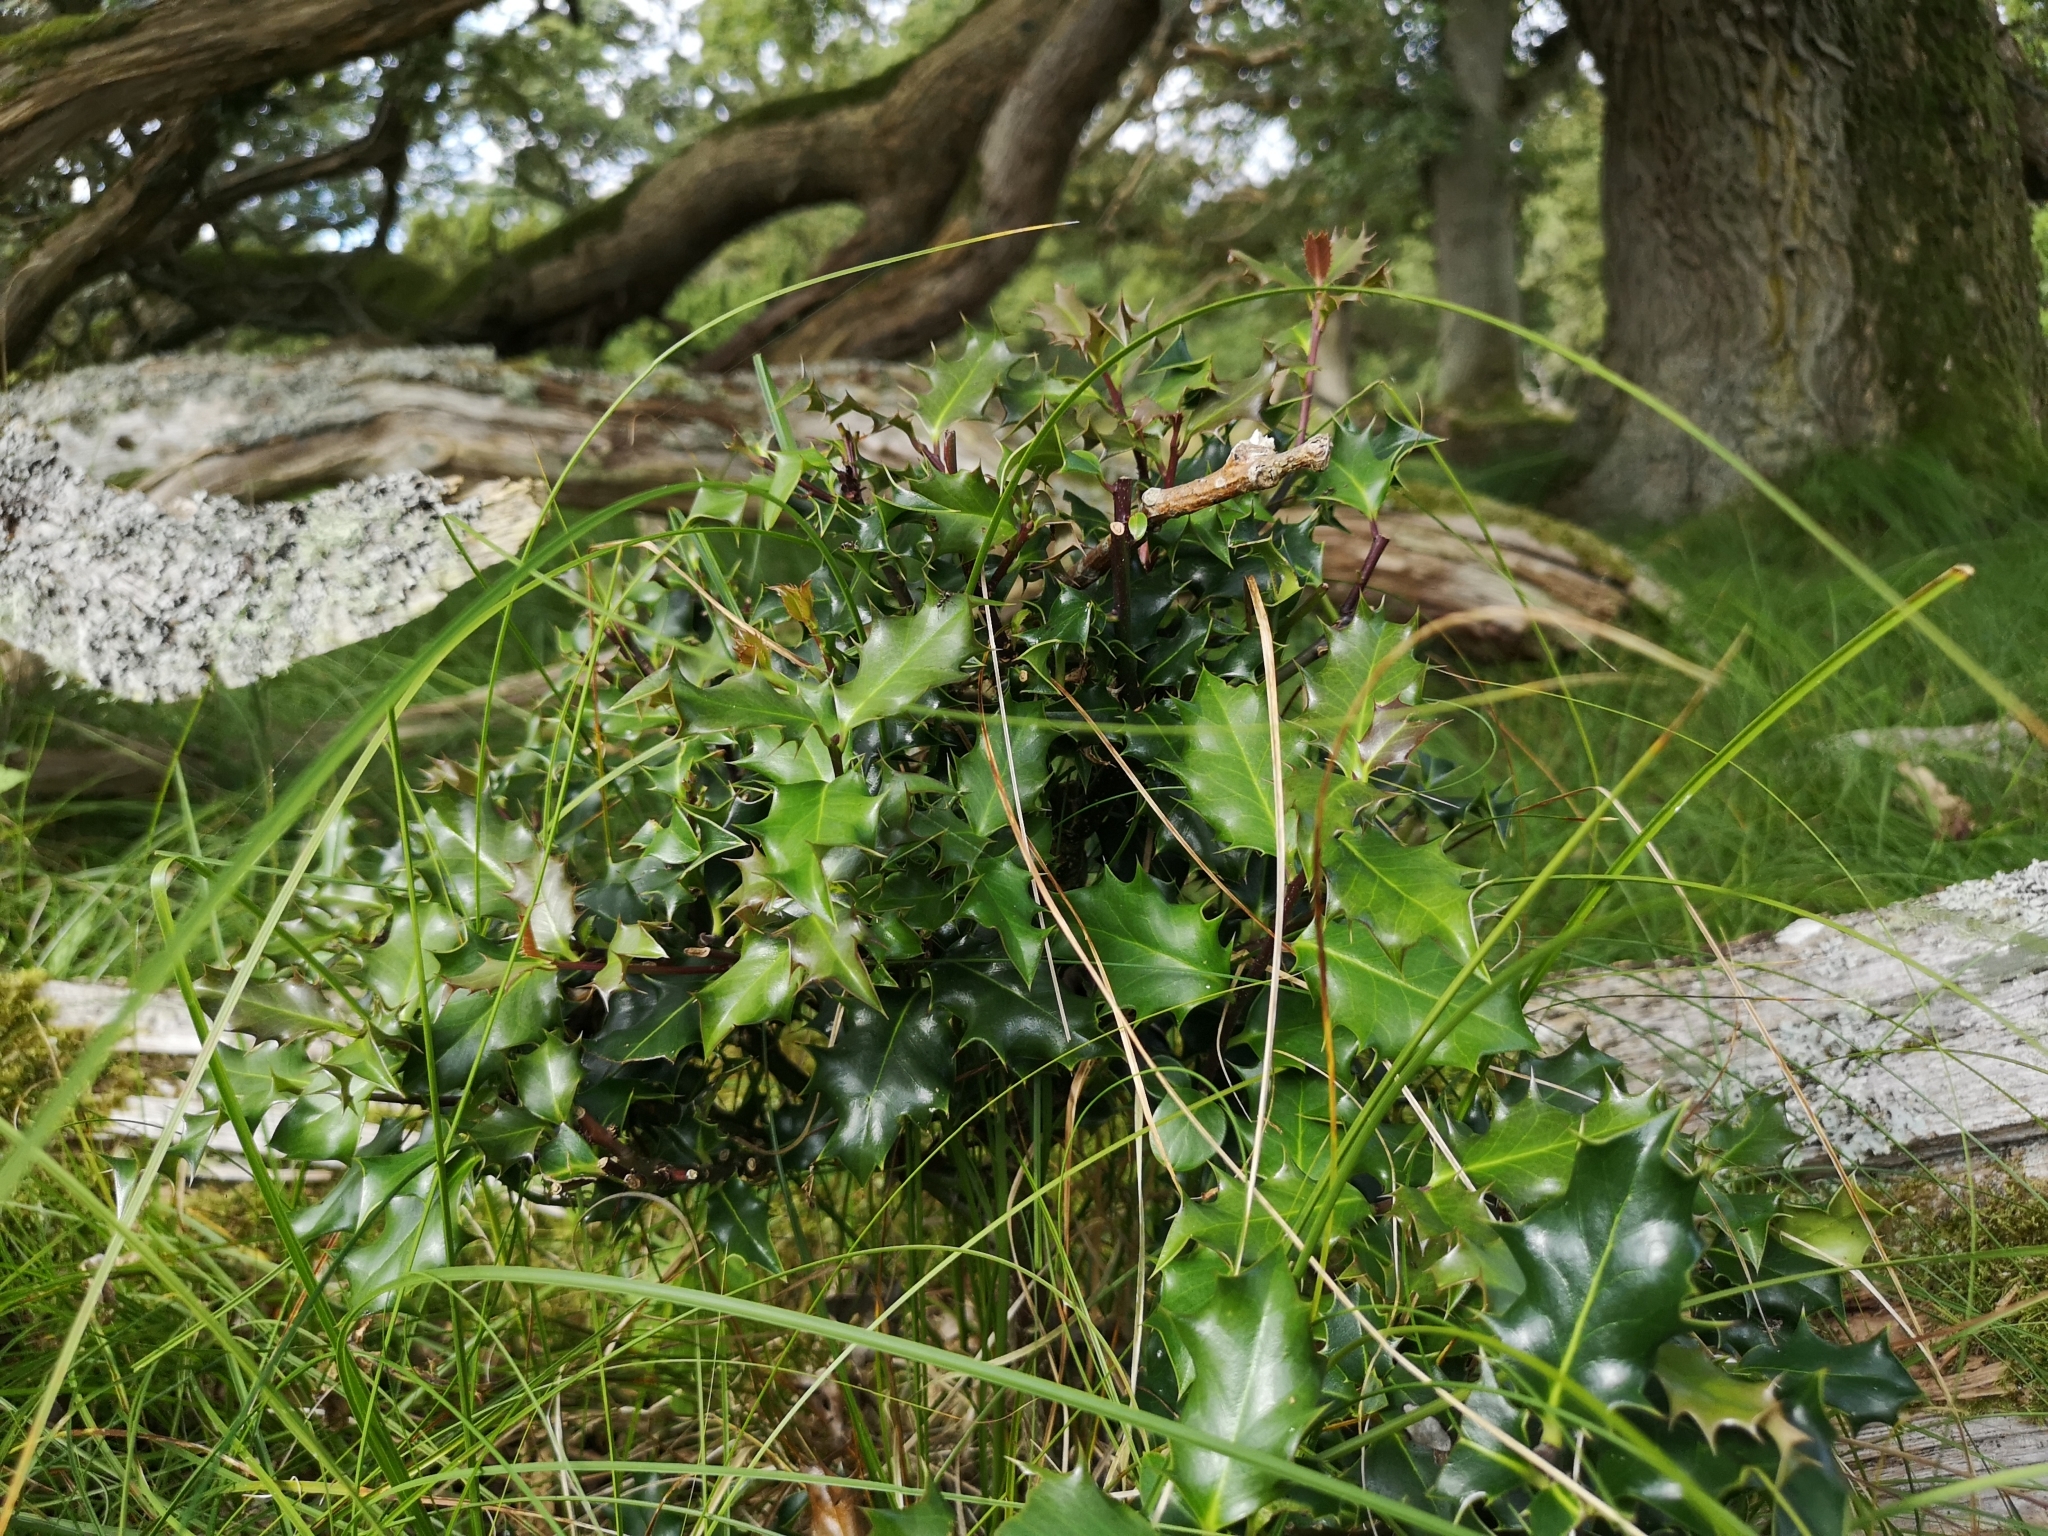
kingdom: Plantae
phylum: Tracheophyta
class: Magnoliopsida
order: Aquifoliales
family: Aquifoliaceae
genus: Ilex
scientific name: Ilex aquifolium
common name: English holly
